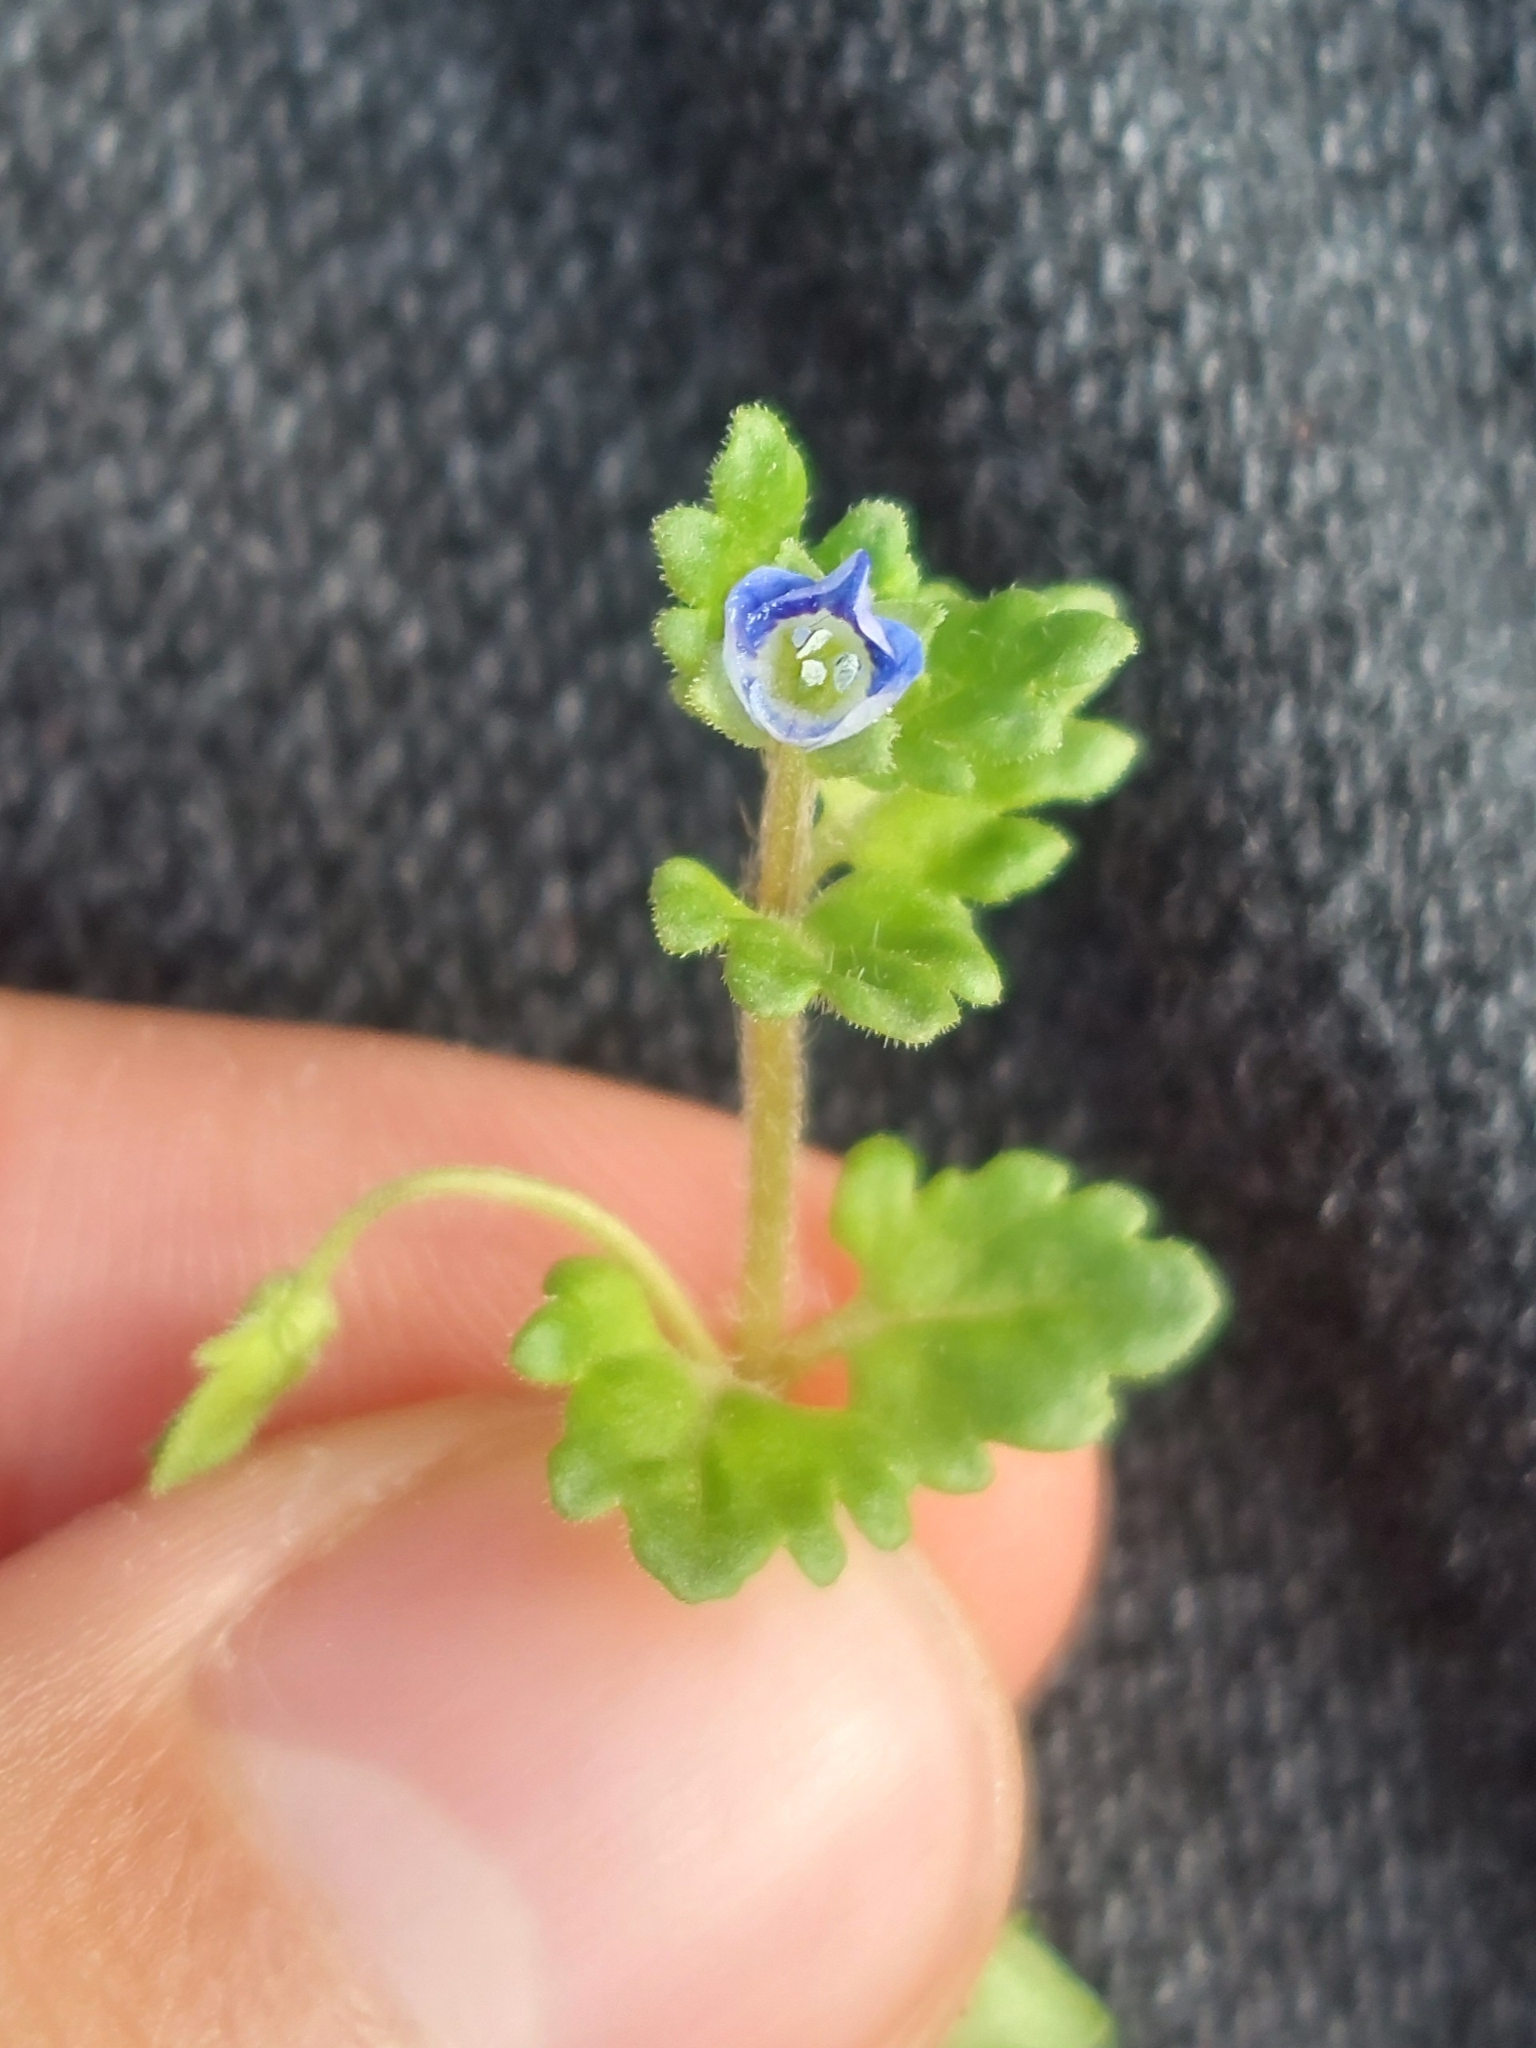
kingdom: Plantae
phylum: Tracheophyta
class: Magnoliopsida
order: Lamiales
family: Plantaginaceae
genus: Veronica
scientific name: Veronica polita
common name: Grey field-speedwell
